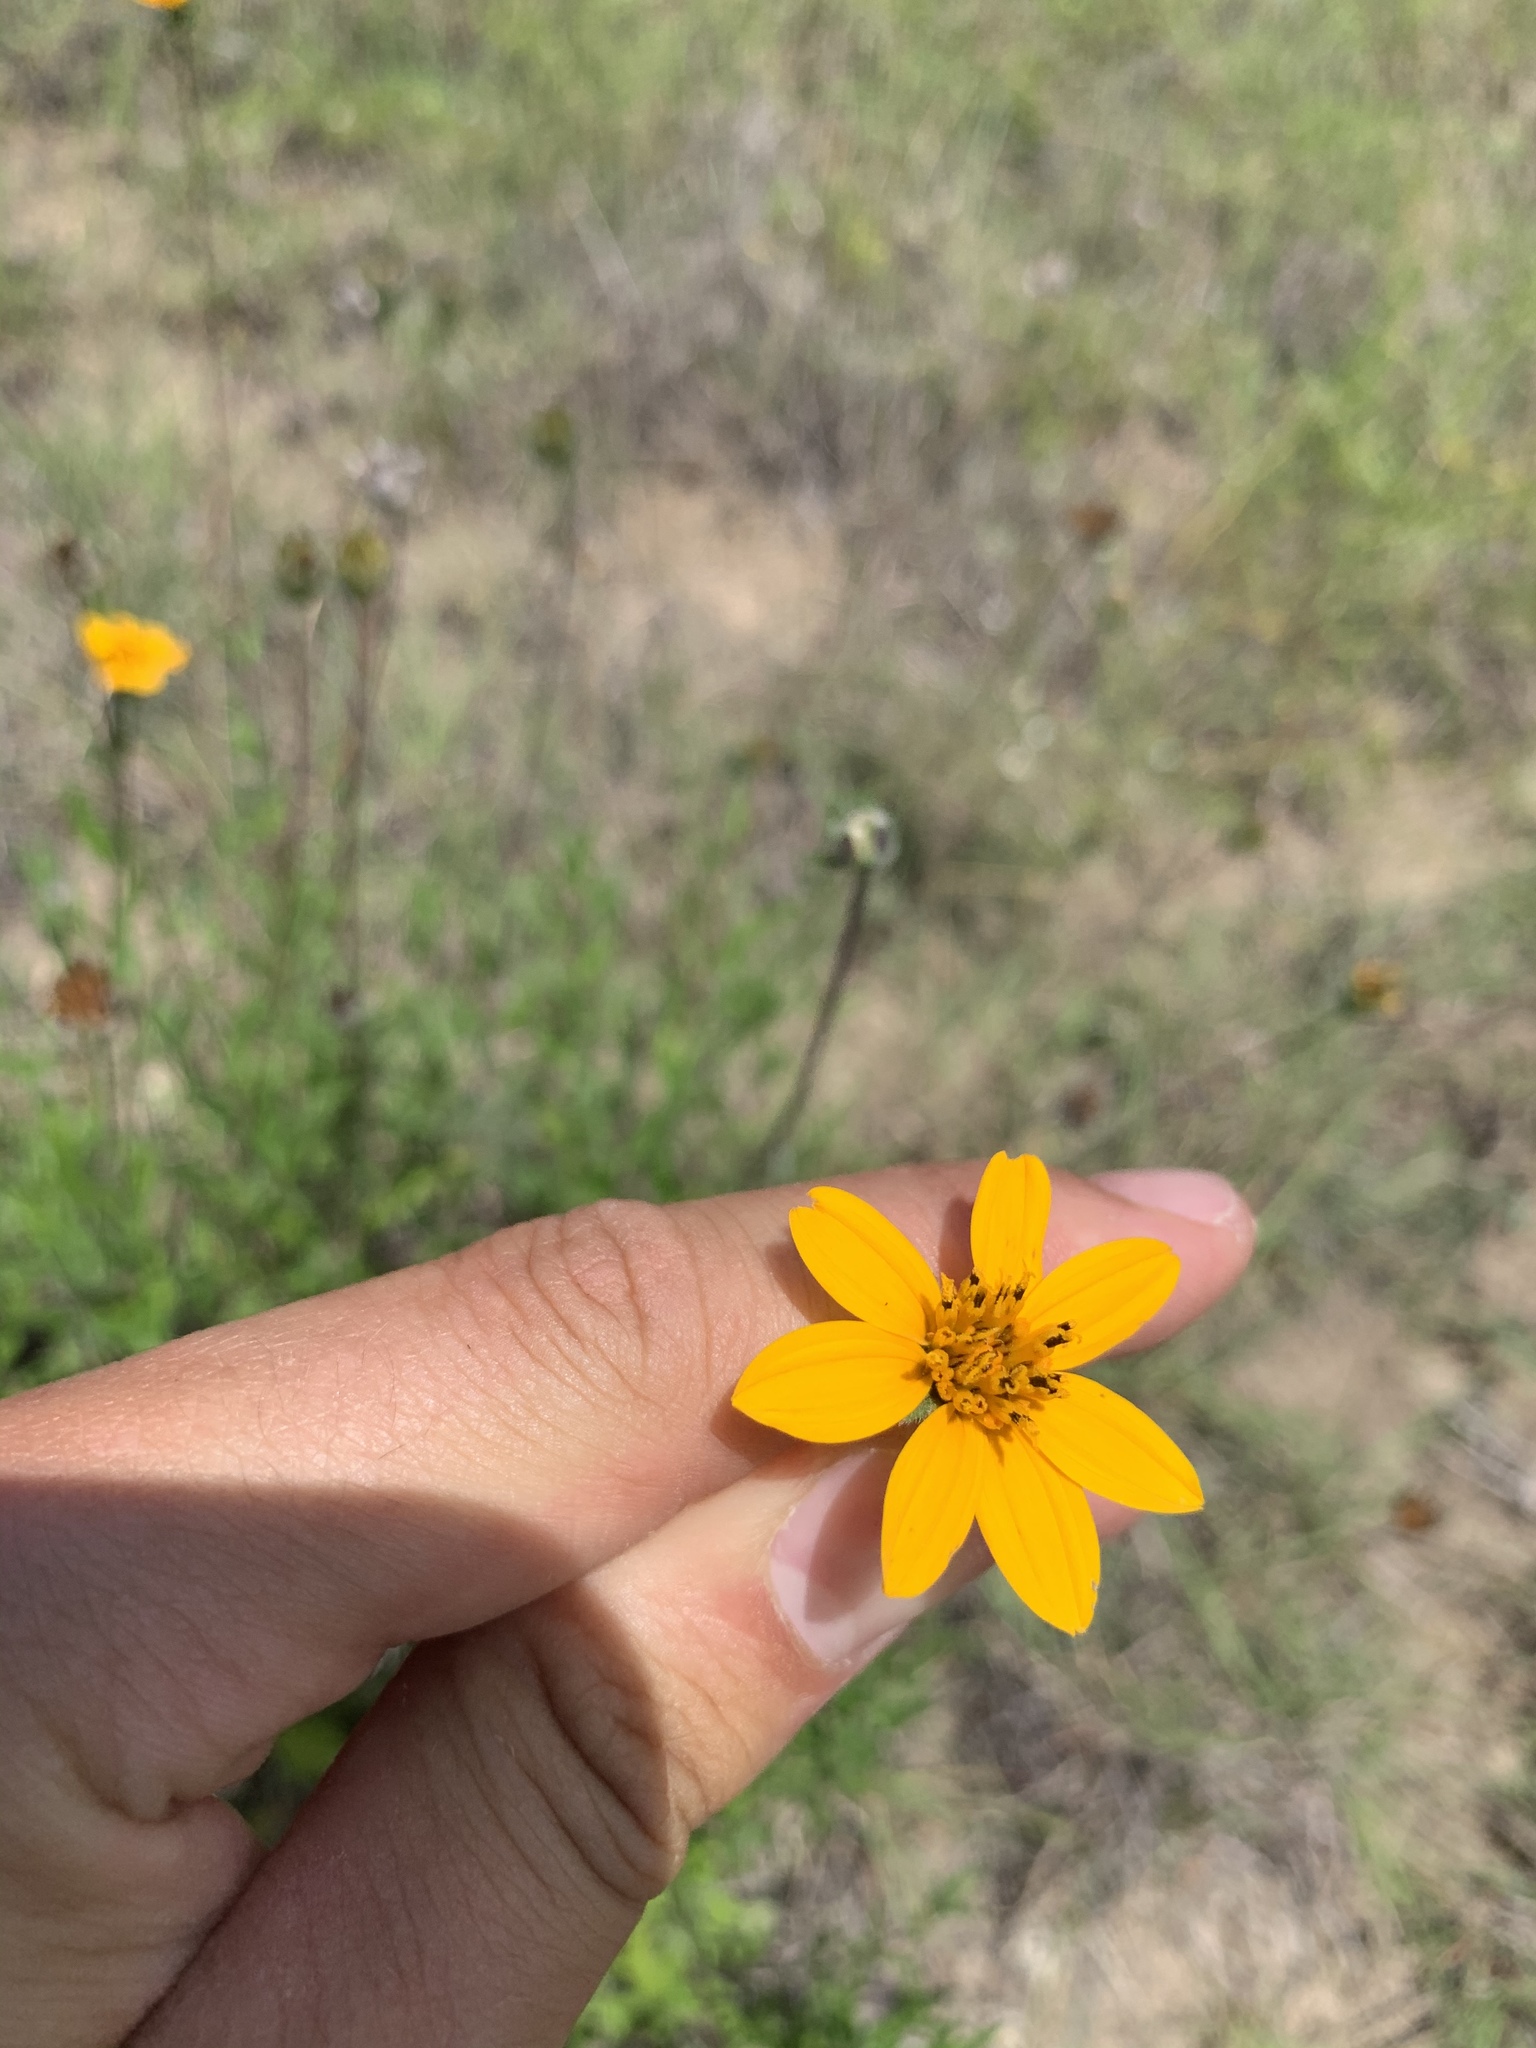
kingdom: Plantae
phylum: Tracheophyta
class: Magnoliopsida
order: Asterales
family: Asteraceae
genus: Wedelia
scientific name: Wedelia acapulcensis
